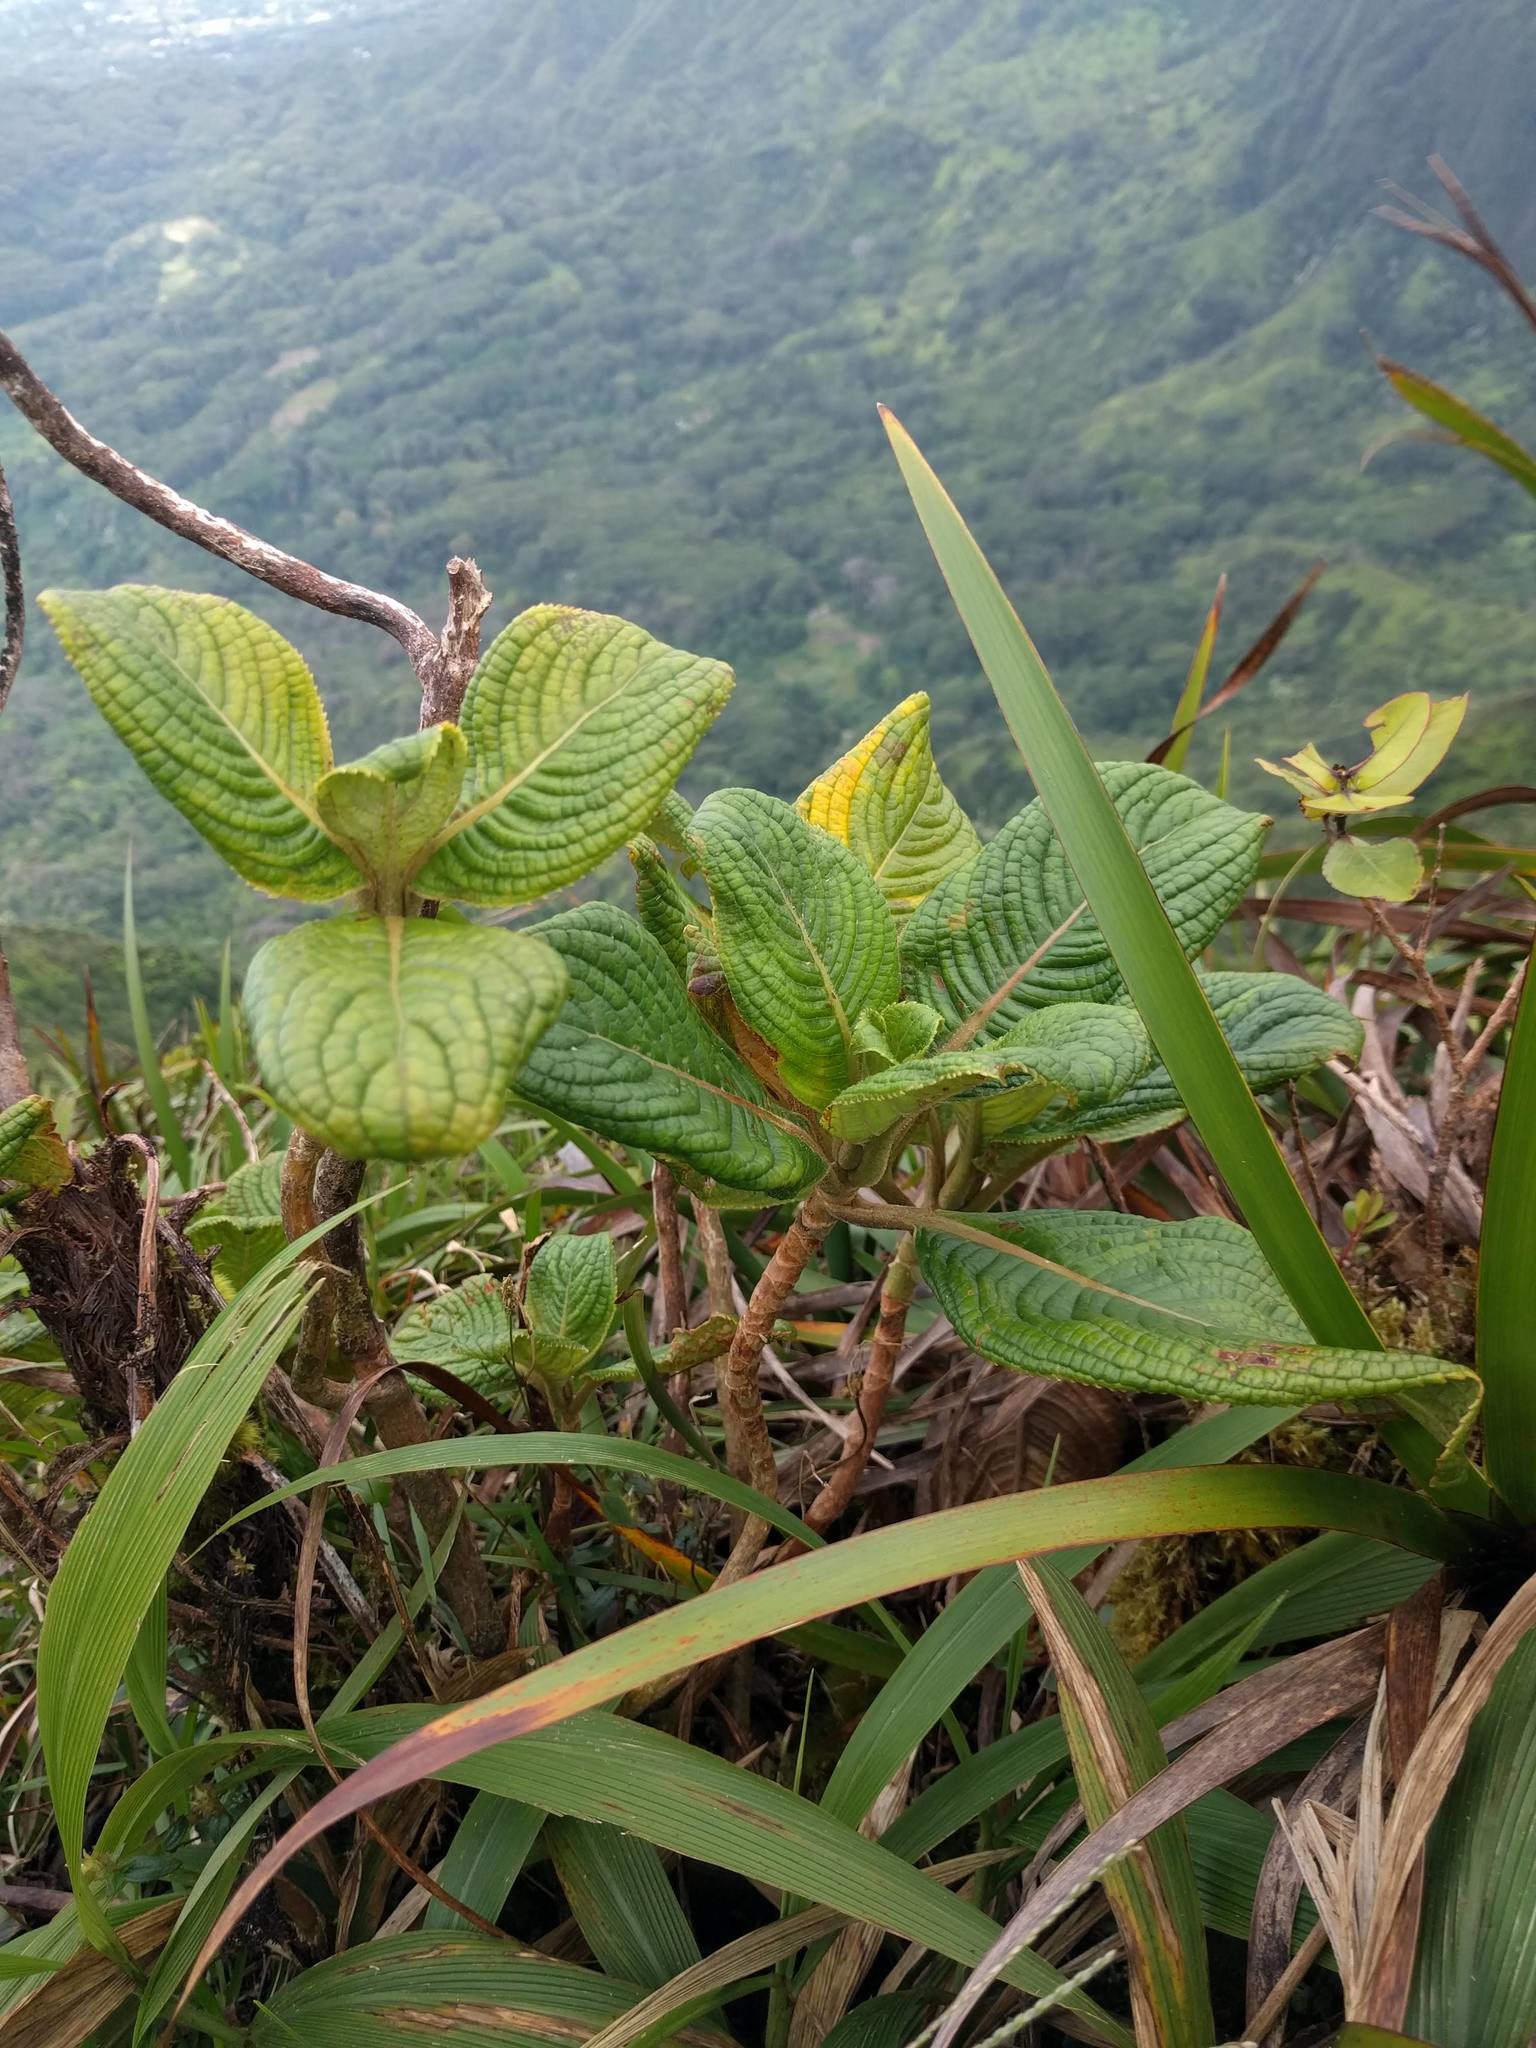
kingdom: Plantae
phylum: Tracheophyta
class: Magnoliopsida
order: Cornales
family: Hydrangeaceae
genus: Hydrangea
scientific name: Hydrangea arguta
